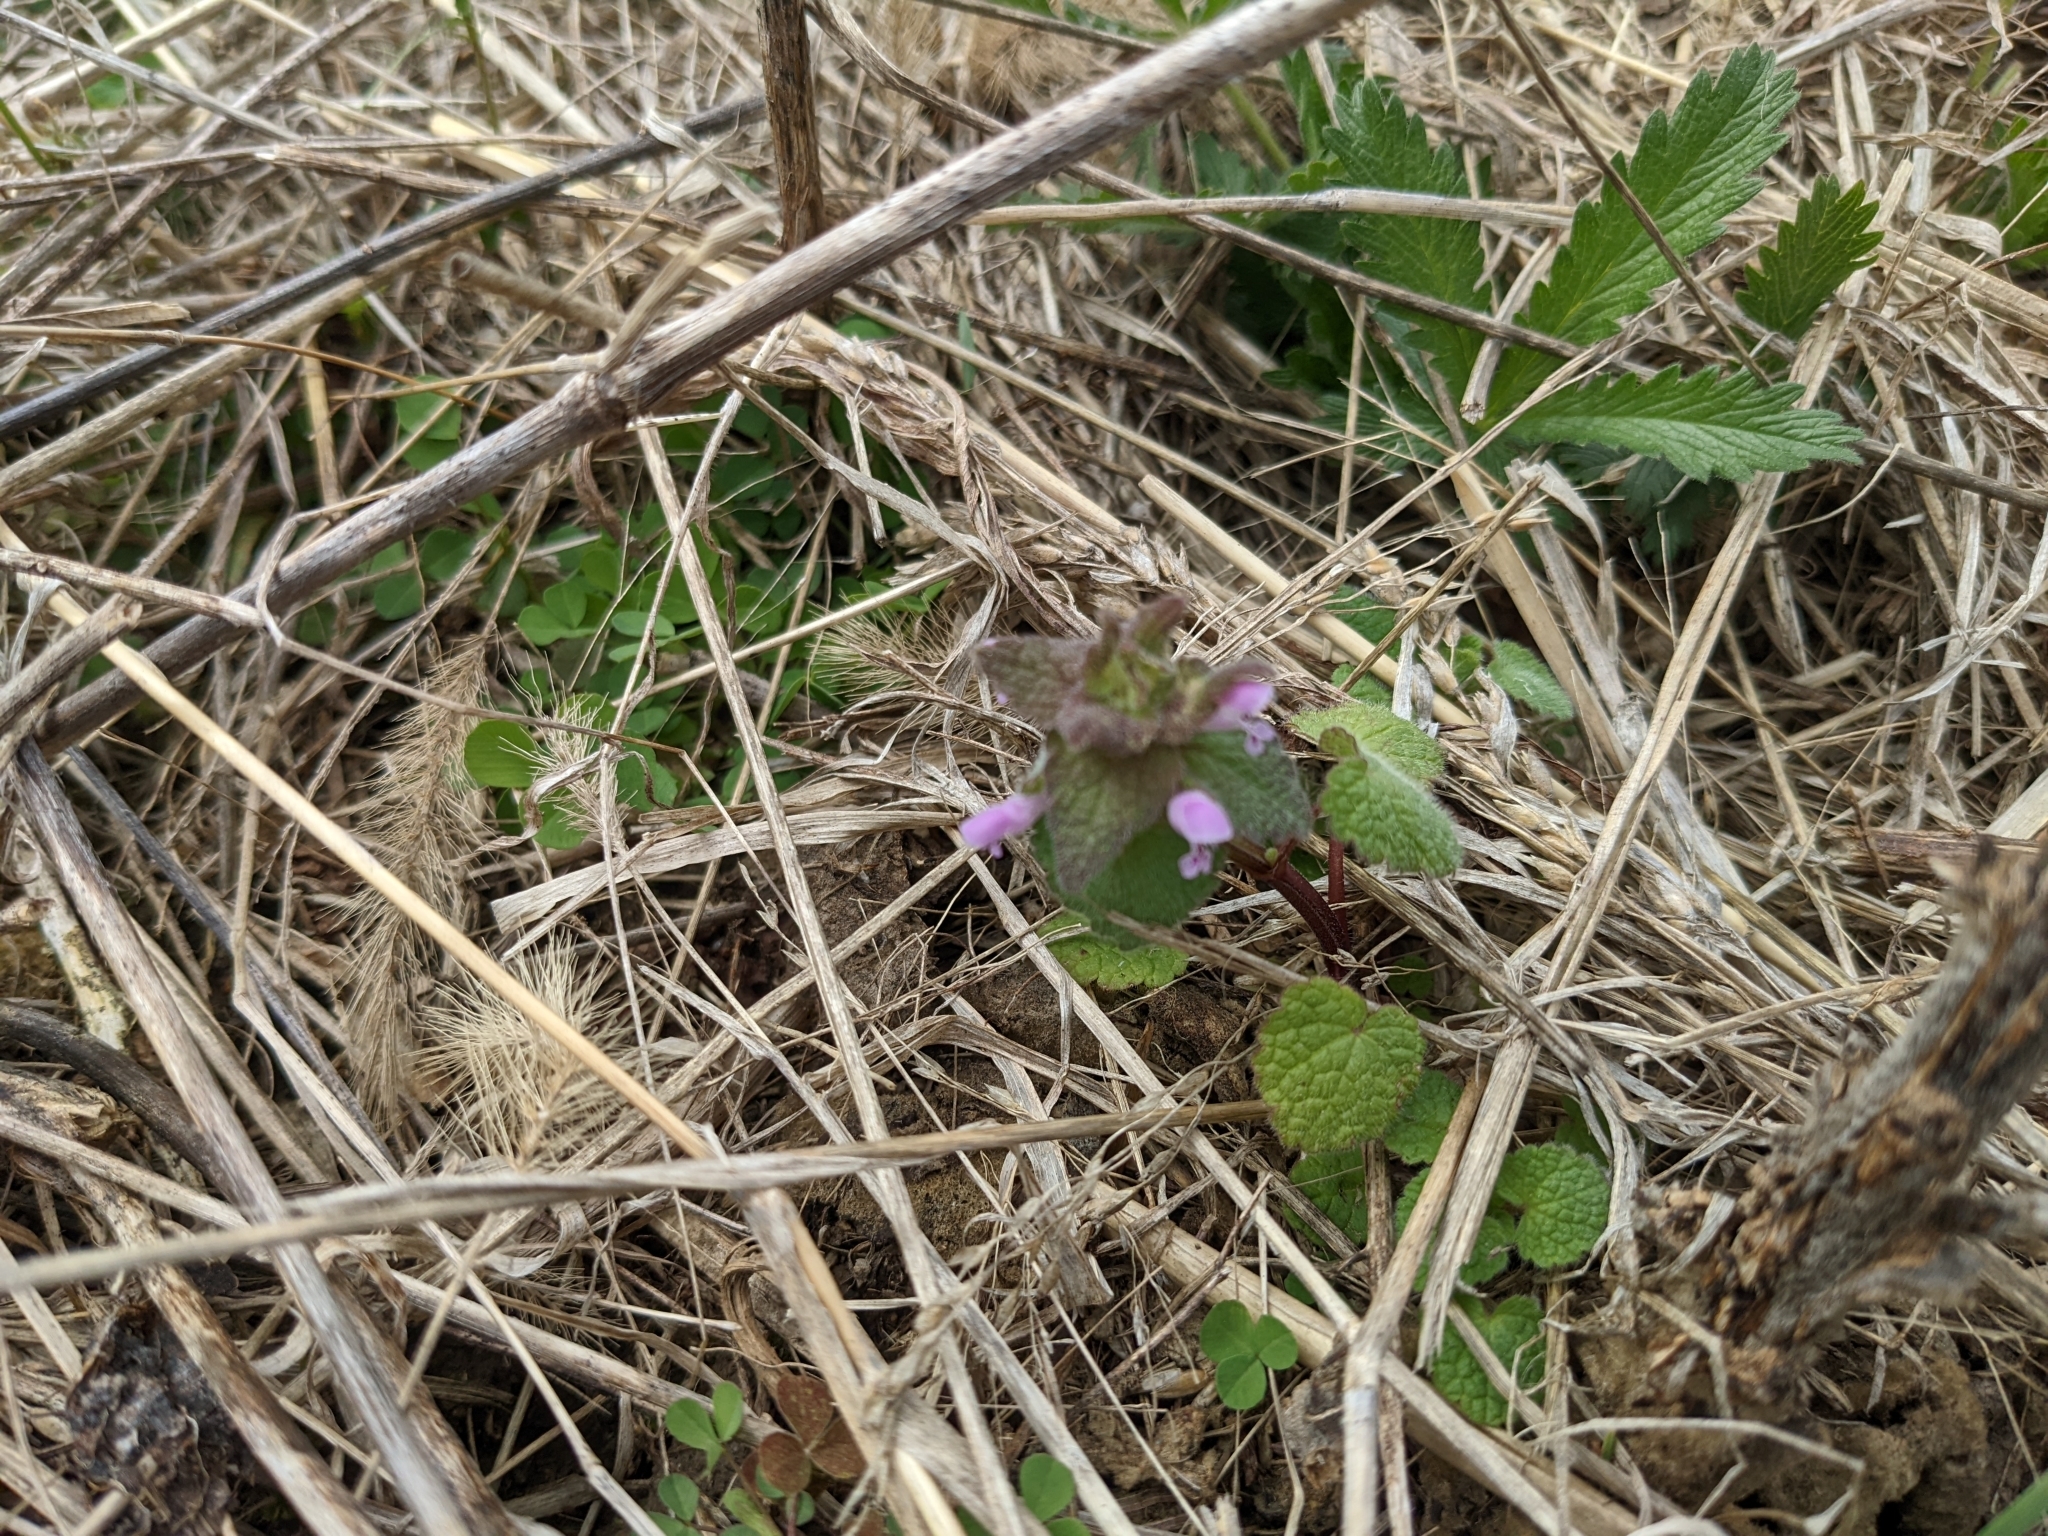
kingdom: Plantae
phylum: Tracheophyta
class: Magnoliopsida
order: Lamiales
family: Lamiaceae
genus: Lamium
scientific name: Lamium purpureum
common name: Red dead-nettle
